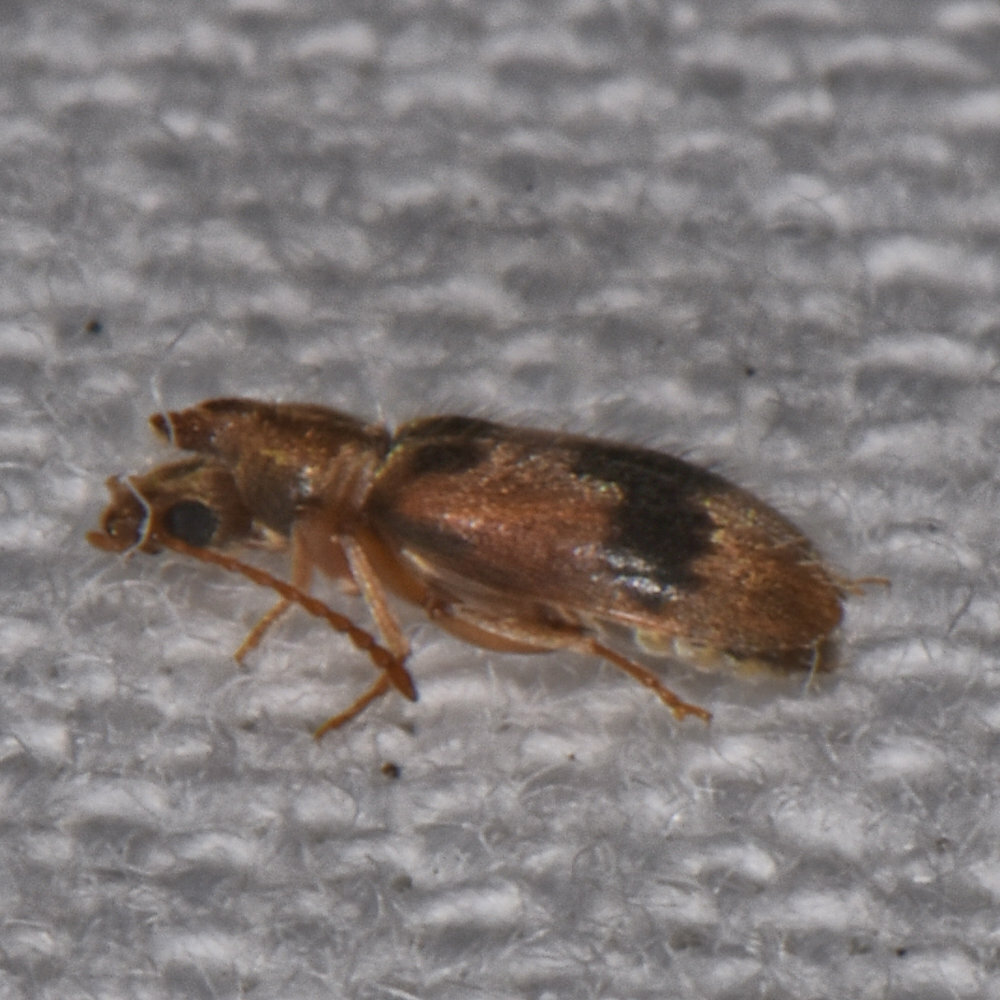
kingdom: Animalia
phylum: Arthropoda
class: Insecta
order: Coleoptera
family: Anthicidae
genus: Notoxus
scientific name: Notoxus desertus
